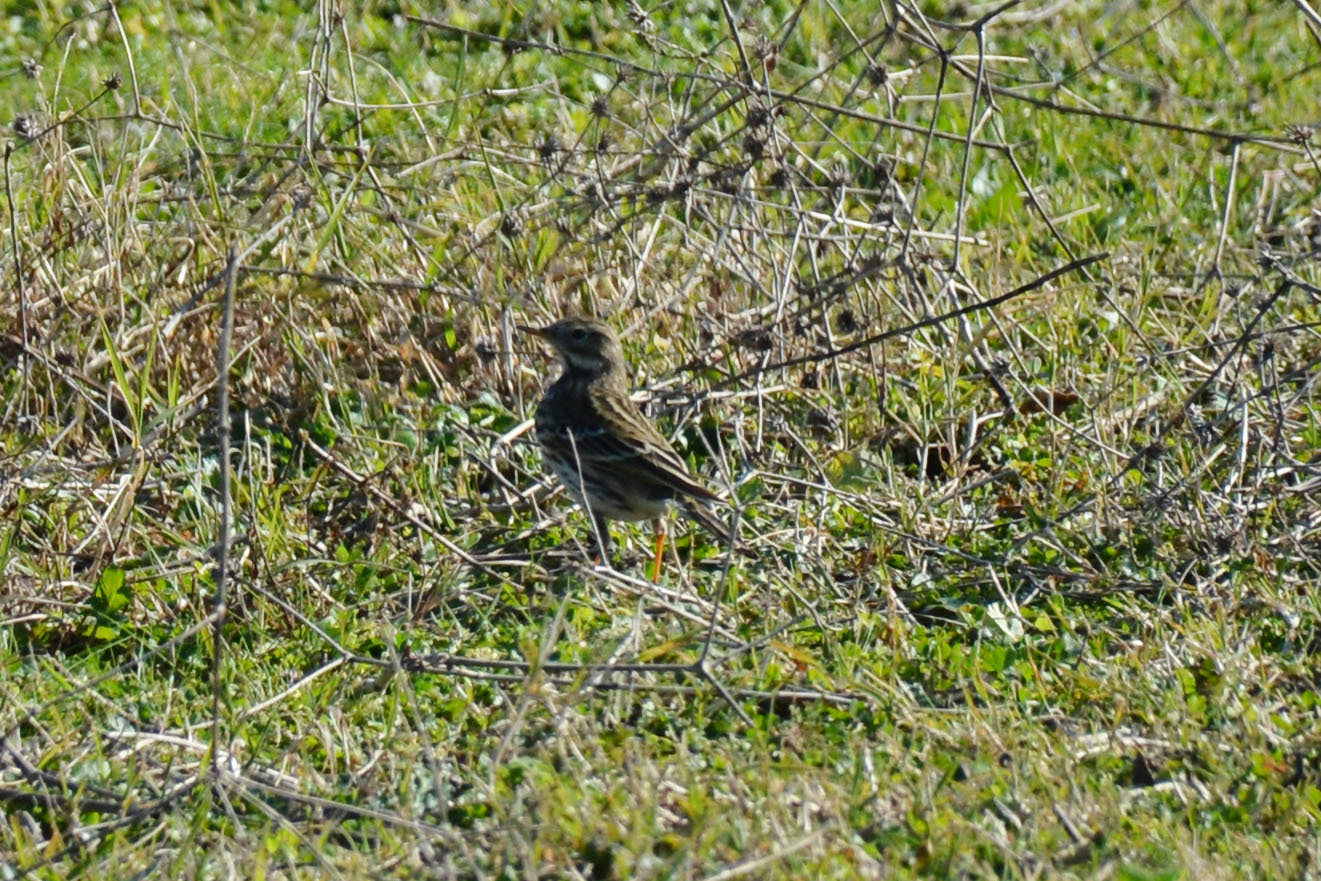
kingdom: Animalia
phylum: Chordata
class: Aves
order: Passeriformes
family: Motacillidae
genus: Anthus
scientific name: Anthus pratensis
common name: Meadow pipit
